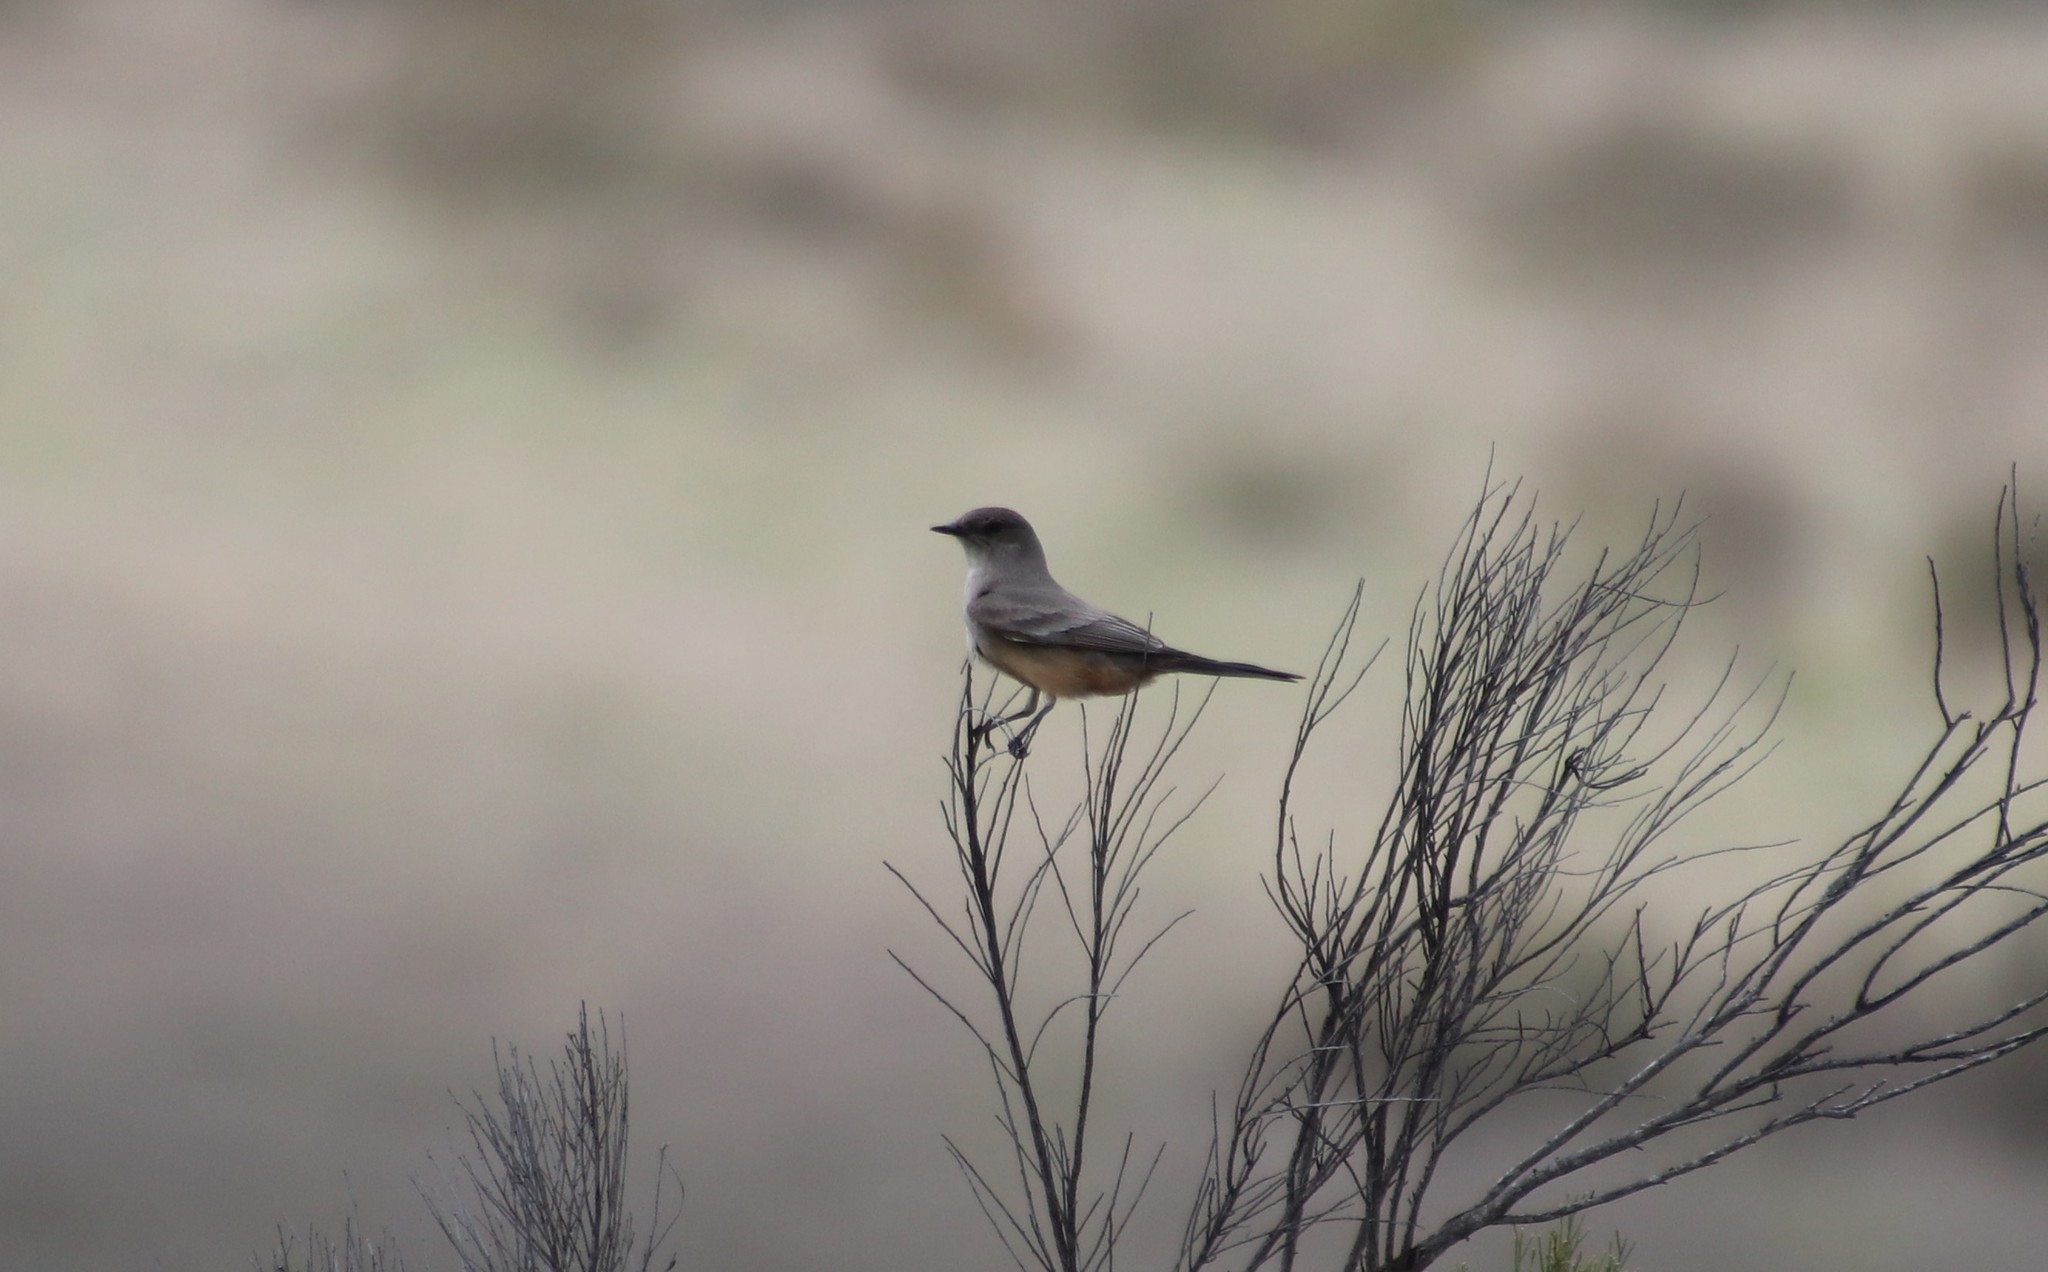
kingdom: Animalia
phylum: Chordata
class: Aves
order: Passeriformes
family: Tyrannidae
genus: Sayornis
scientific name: Sayornis saya
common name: Say's phoebe
